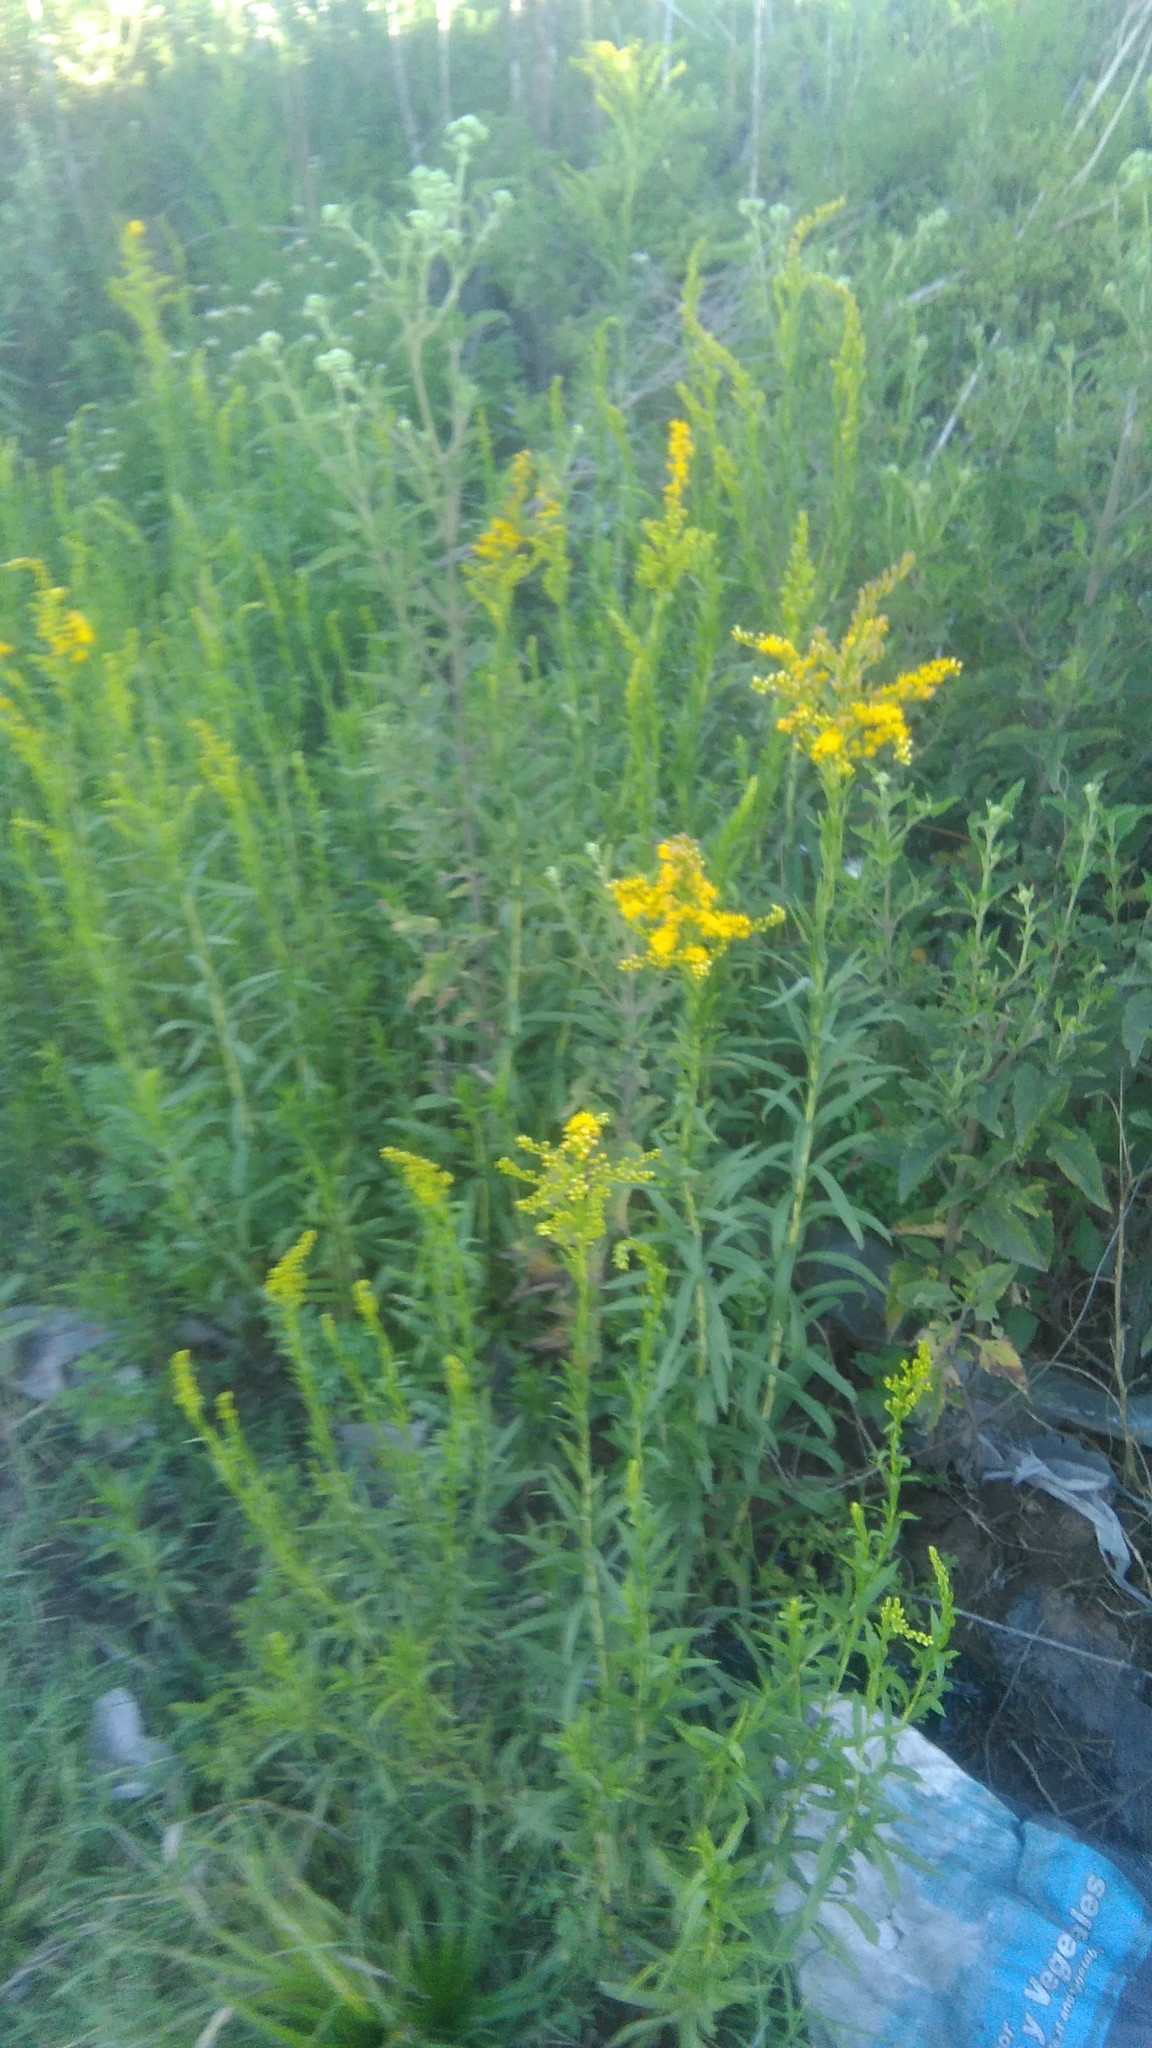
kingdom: Plantae
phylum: Tracheophyta
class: Magnoliopsida
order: Asterales
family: Asteraceae
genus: Solidago
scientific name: Solidago chilensis
